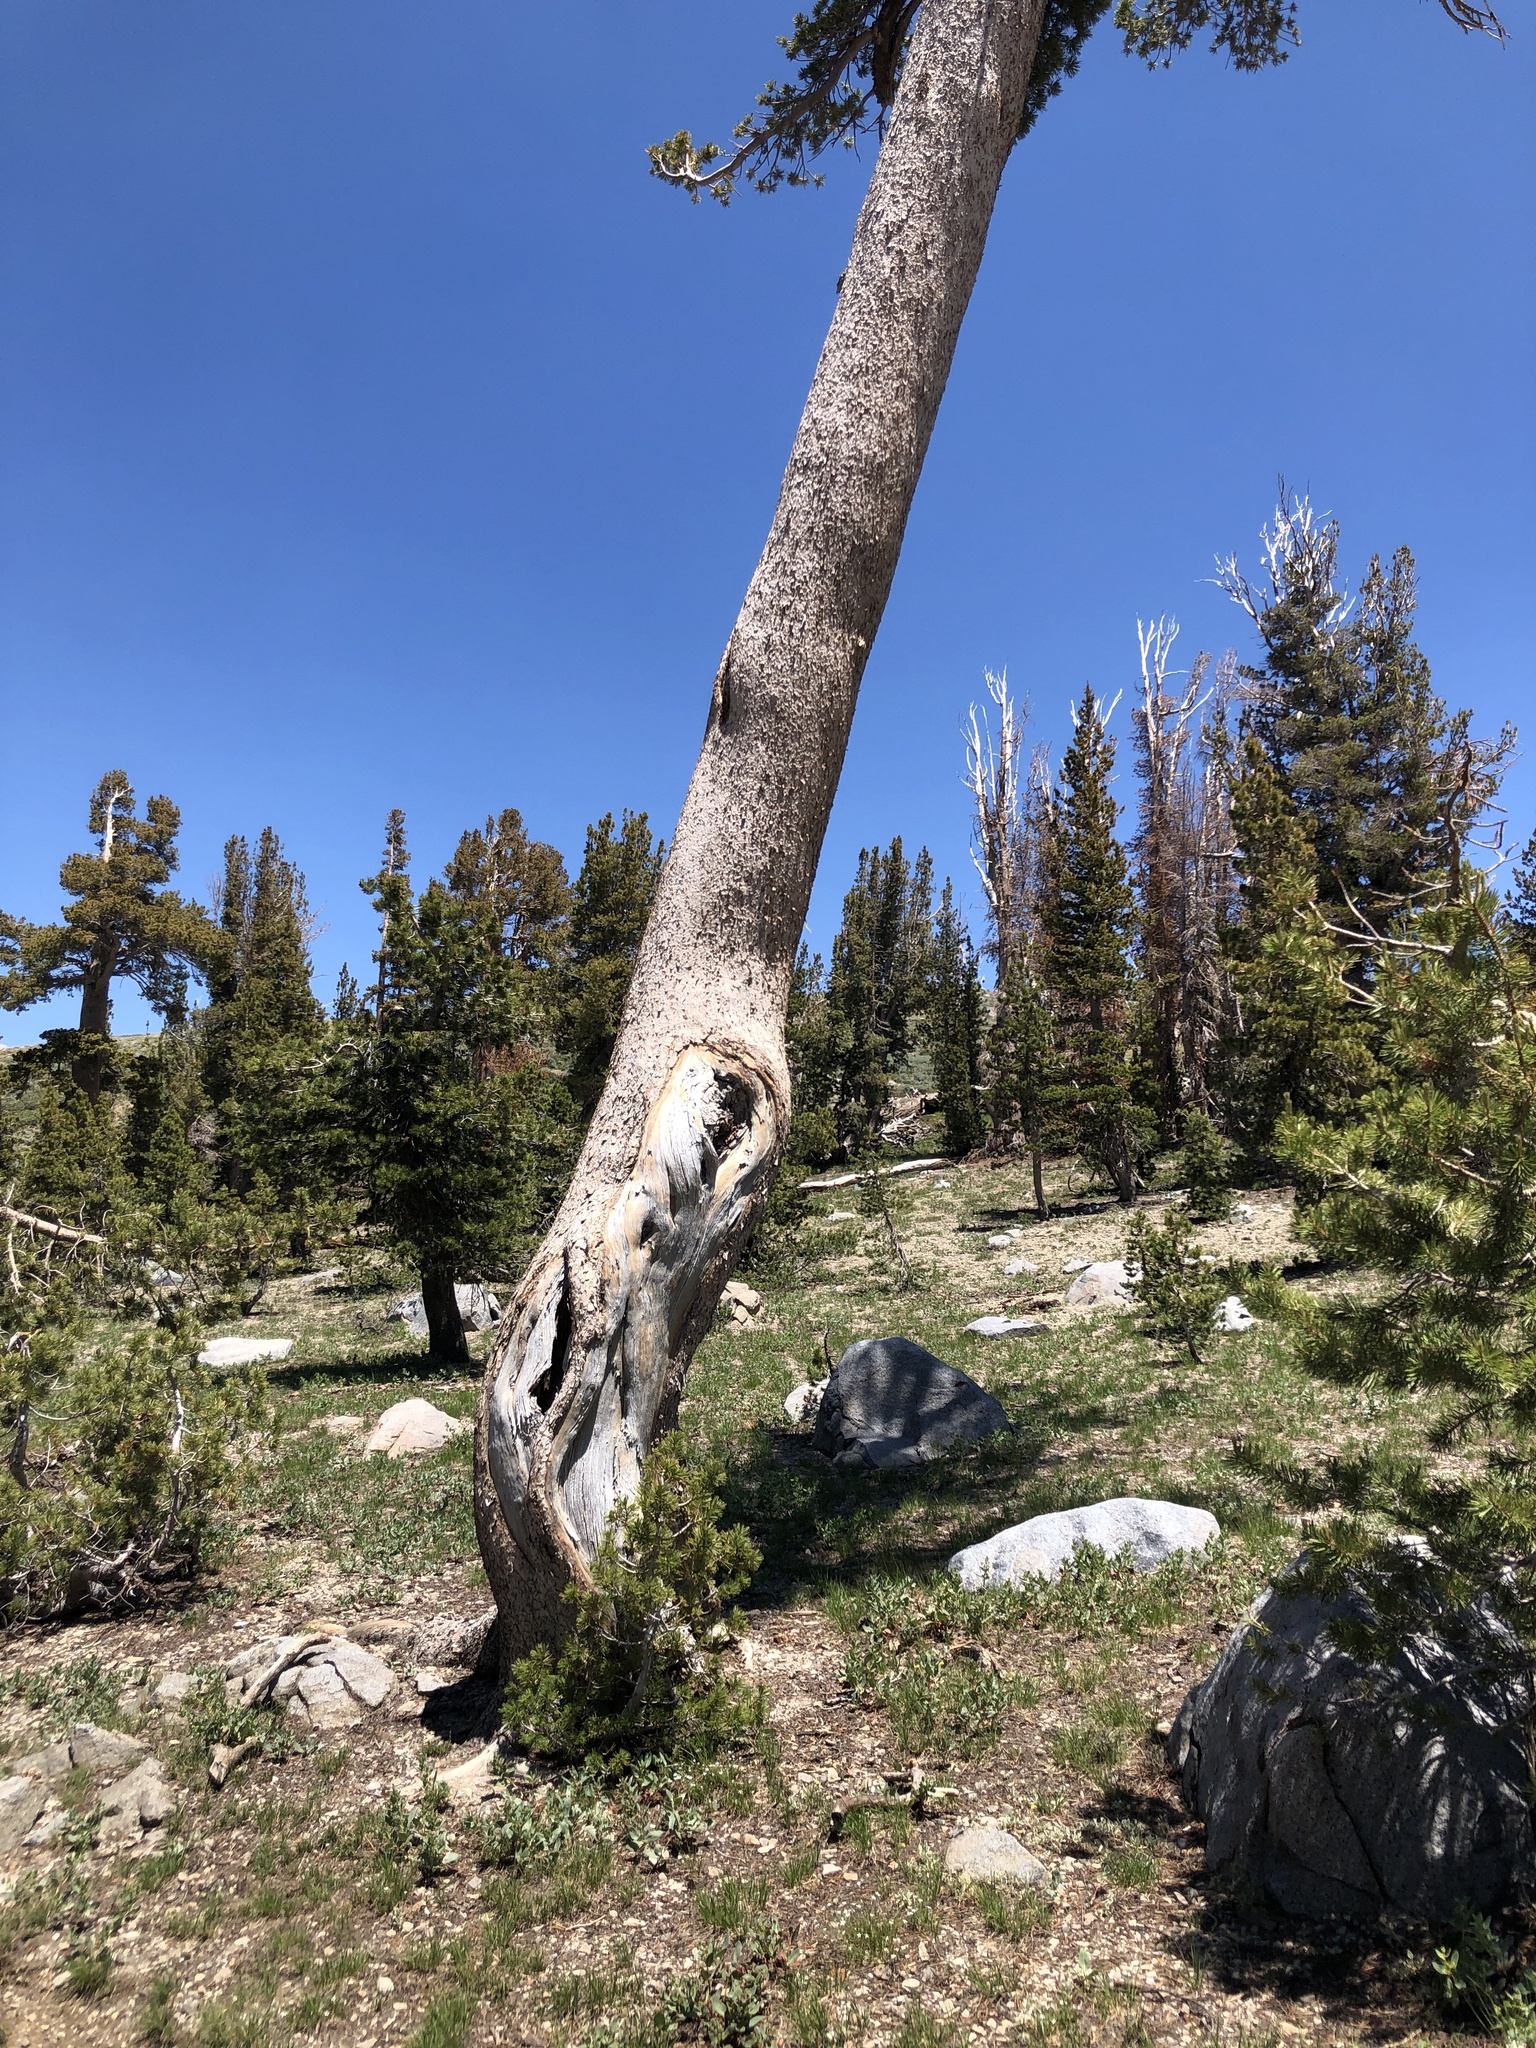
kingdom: Plantae
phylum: Tracheophyta
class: Pinopsida
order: Pinales
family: Pinaceae
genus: Pinus
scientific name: Pinus albicaulis
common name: Whitebark pine
